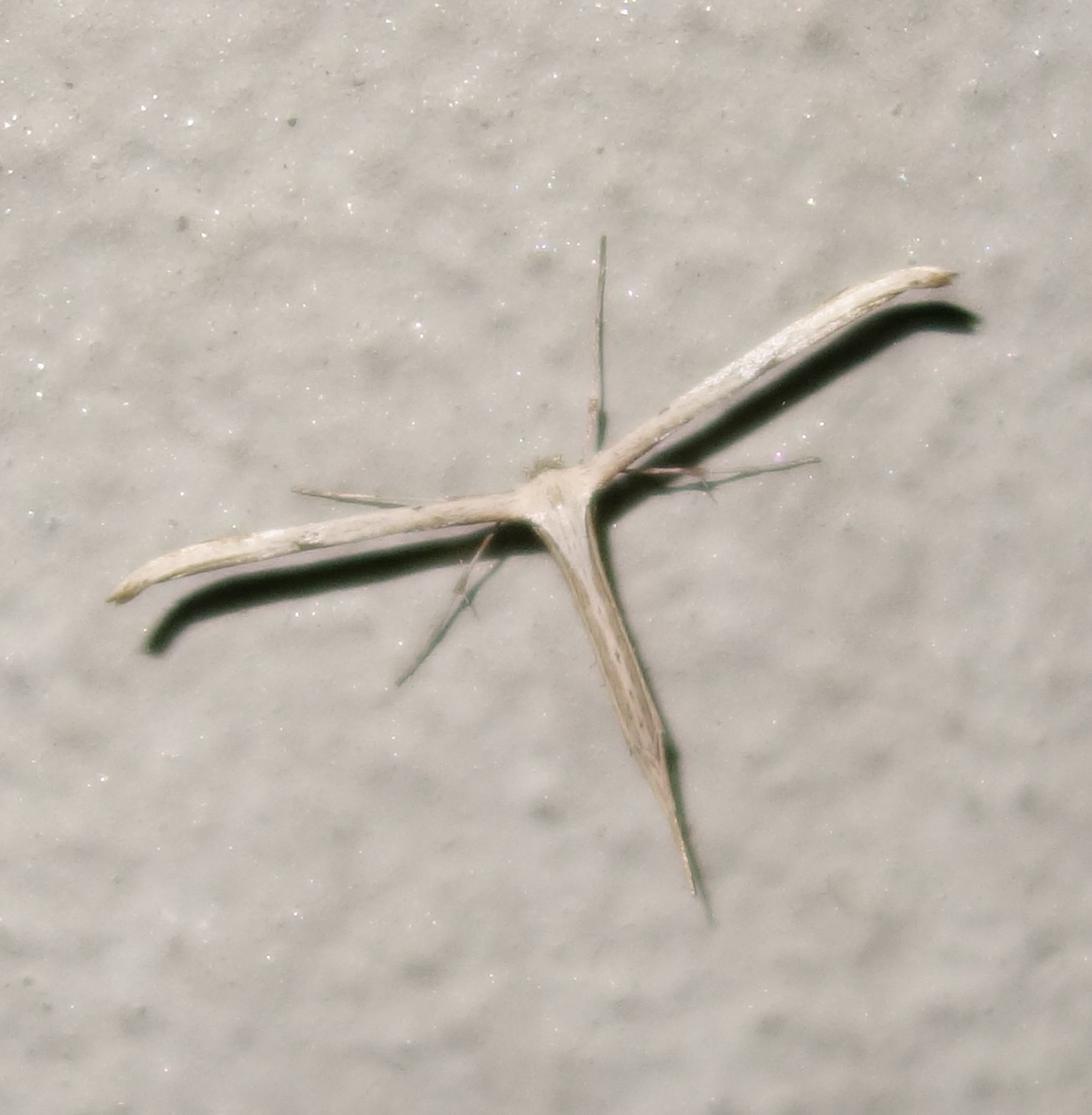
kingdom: Animalia
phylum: Arthropoda
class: Insecta
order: Lepidoptera
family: Pterophoridae
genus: Emmelina
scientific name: Emmelina monodactyla
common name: Common plume
